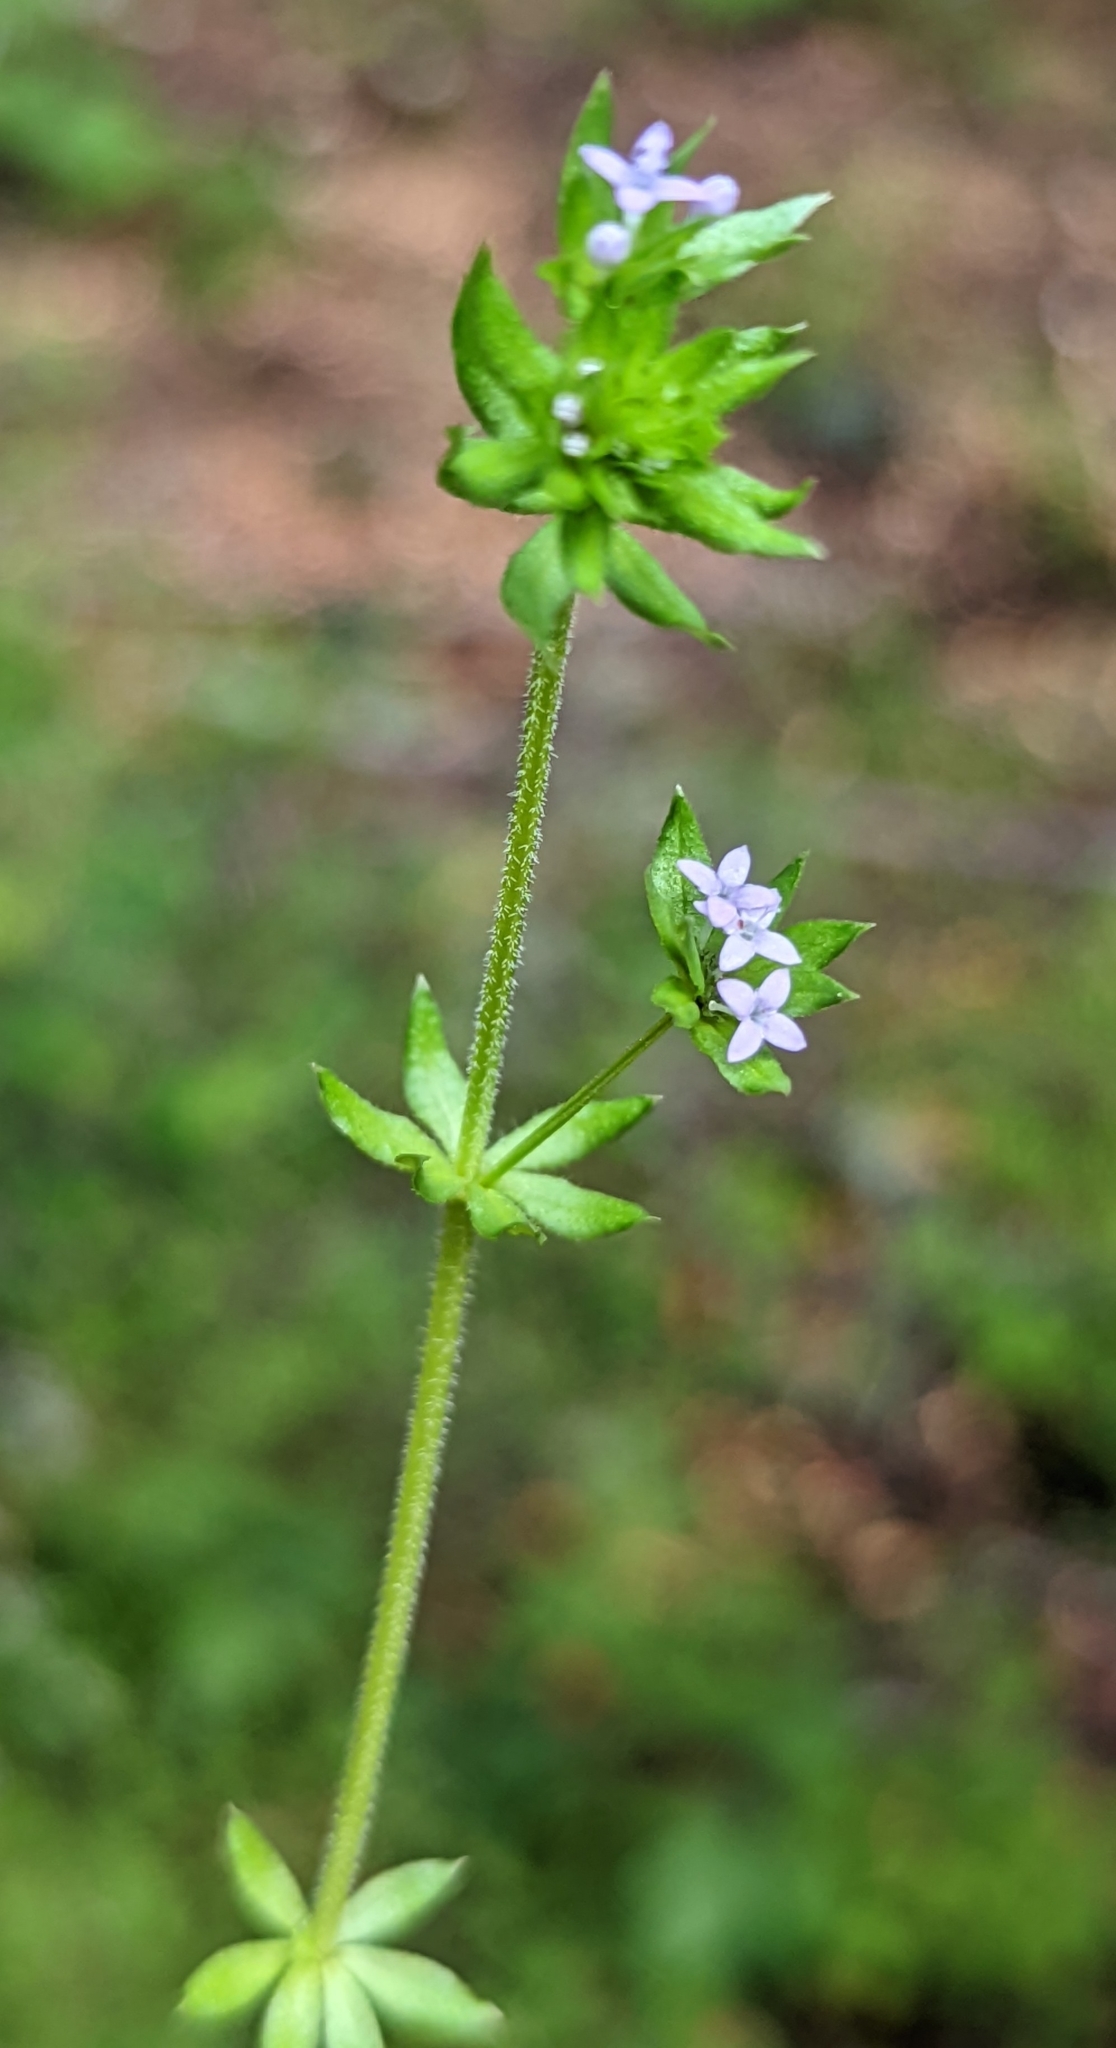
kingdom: Plantae
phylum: Tracheophyta
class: Magnoliopsida
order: Gentianales
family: Rubiaceae
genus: Sherardia
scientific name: Sherardia arvensis
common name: Field madder
